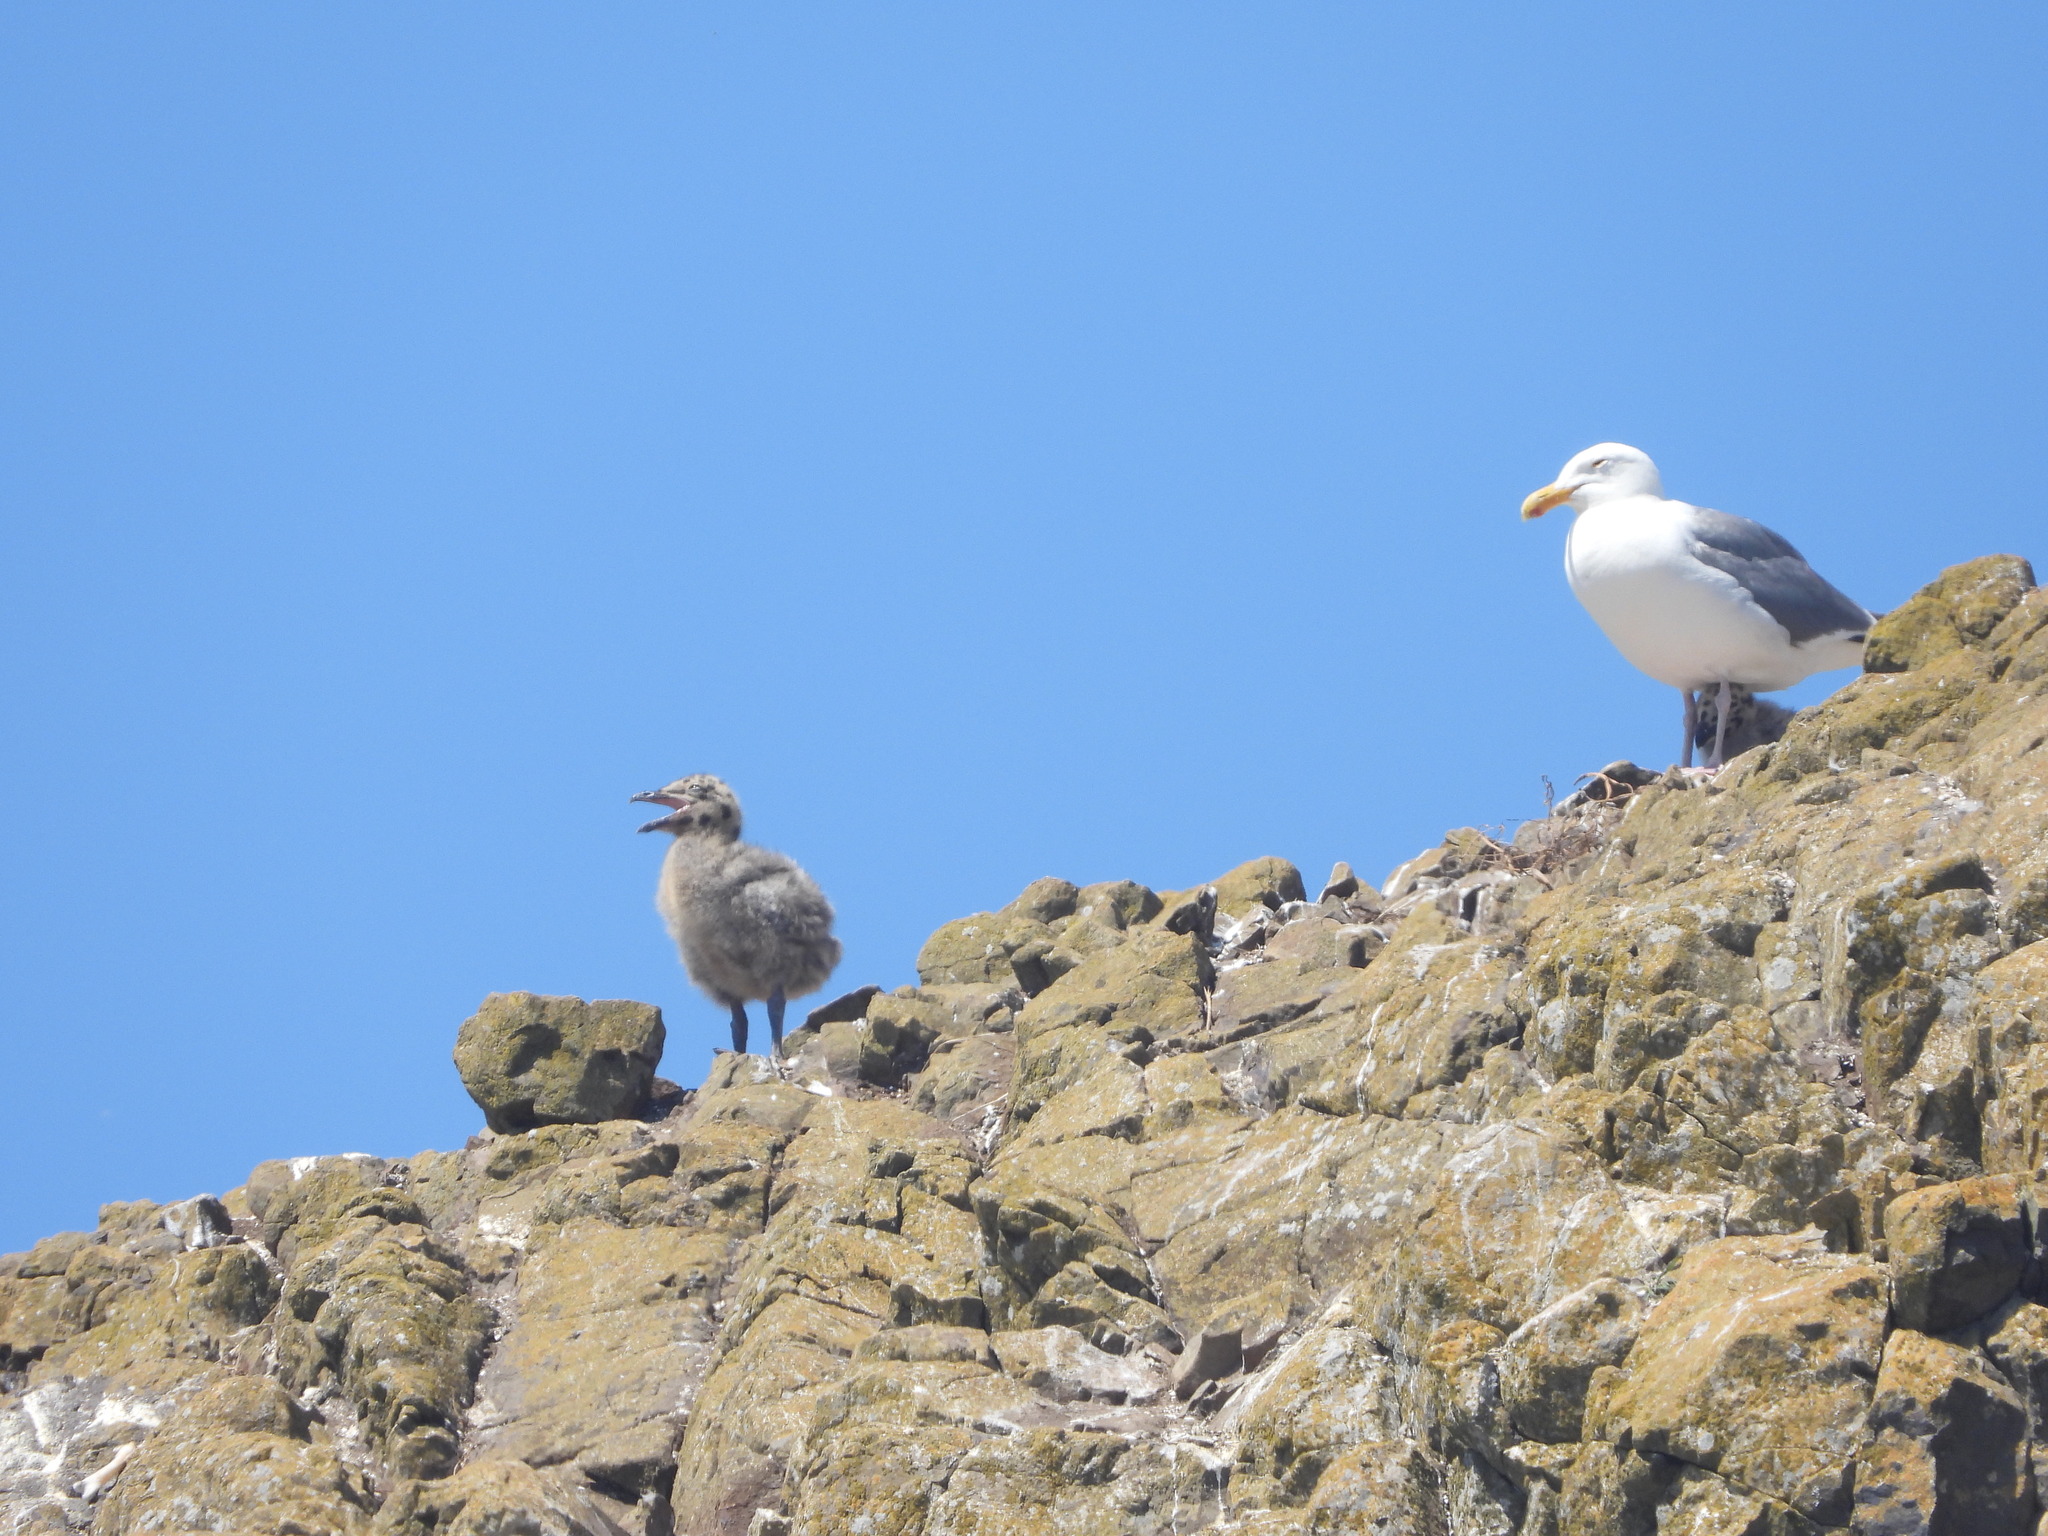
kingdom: Animalia
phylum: Chordata
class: Aves
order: Charadriiformes
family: Laridae
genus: Larus
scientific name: Larus occidentalis
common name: Western gull
